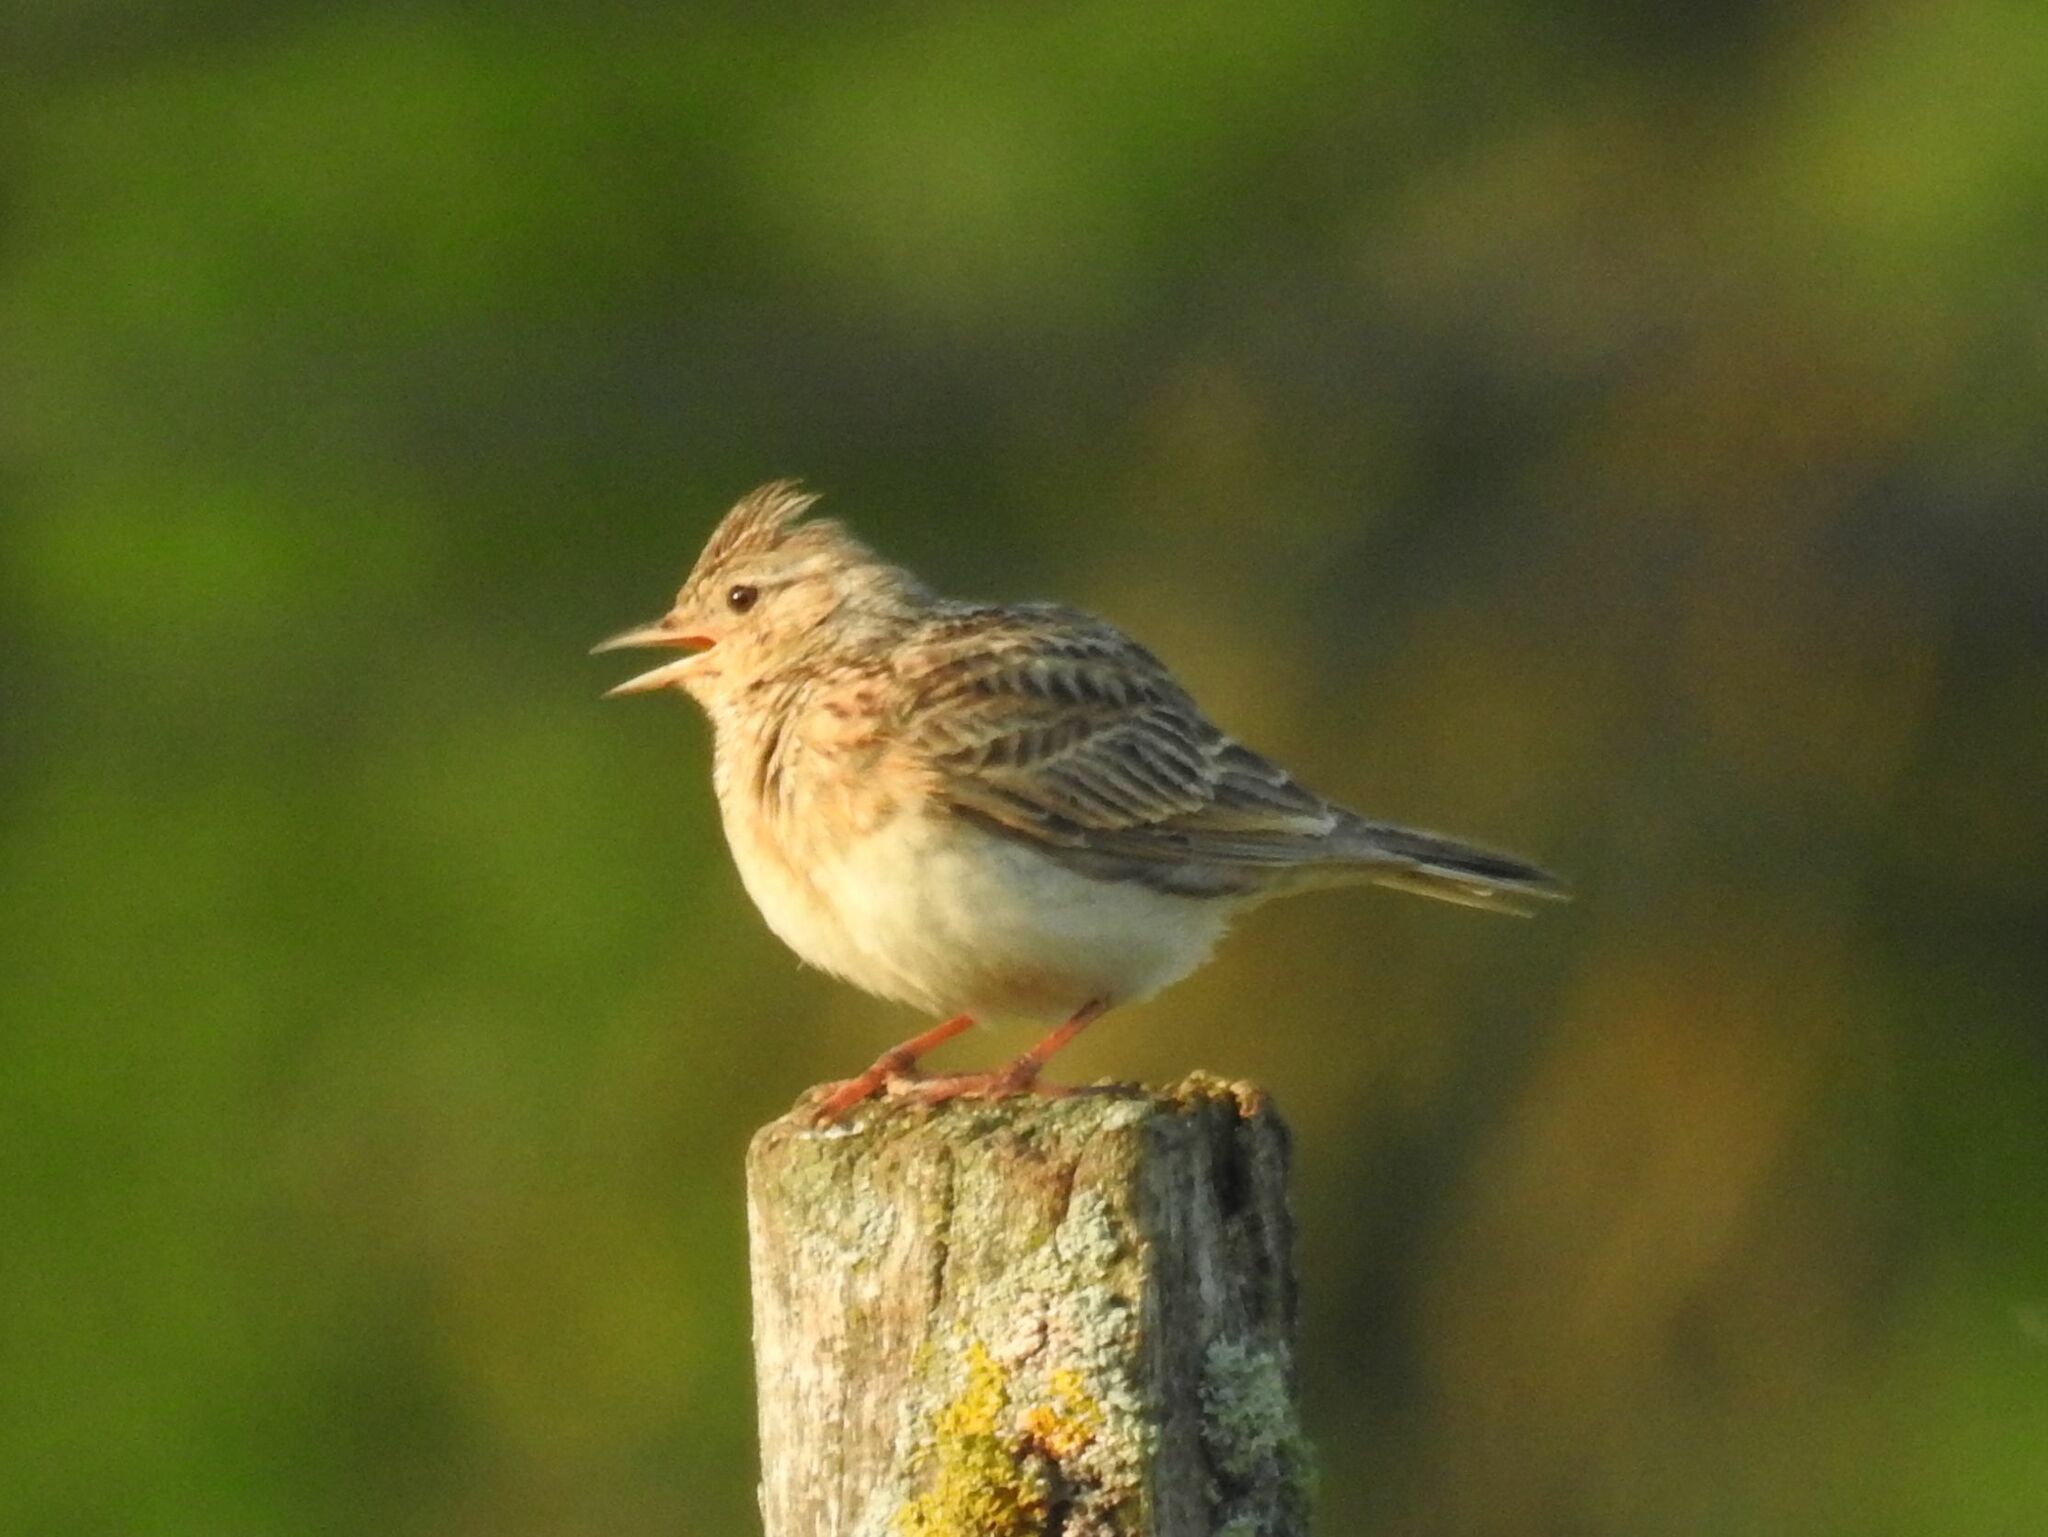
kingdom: Animalia
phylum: Chordata
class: Aves
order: Passeriformes
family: Alaudidae
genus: Alauda
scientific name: Alauda arvensis
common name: Eurasian skylark
